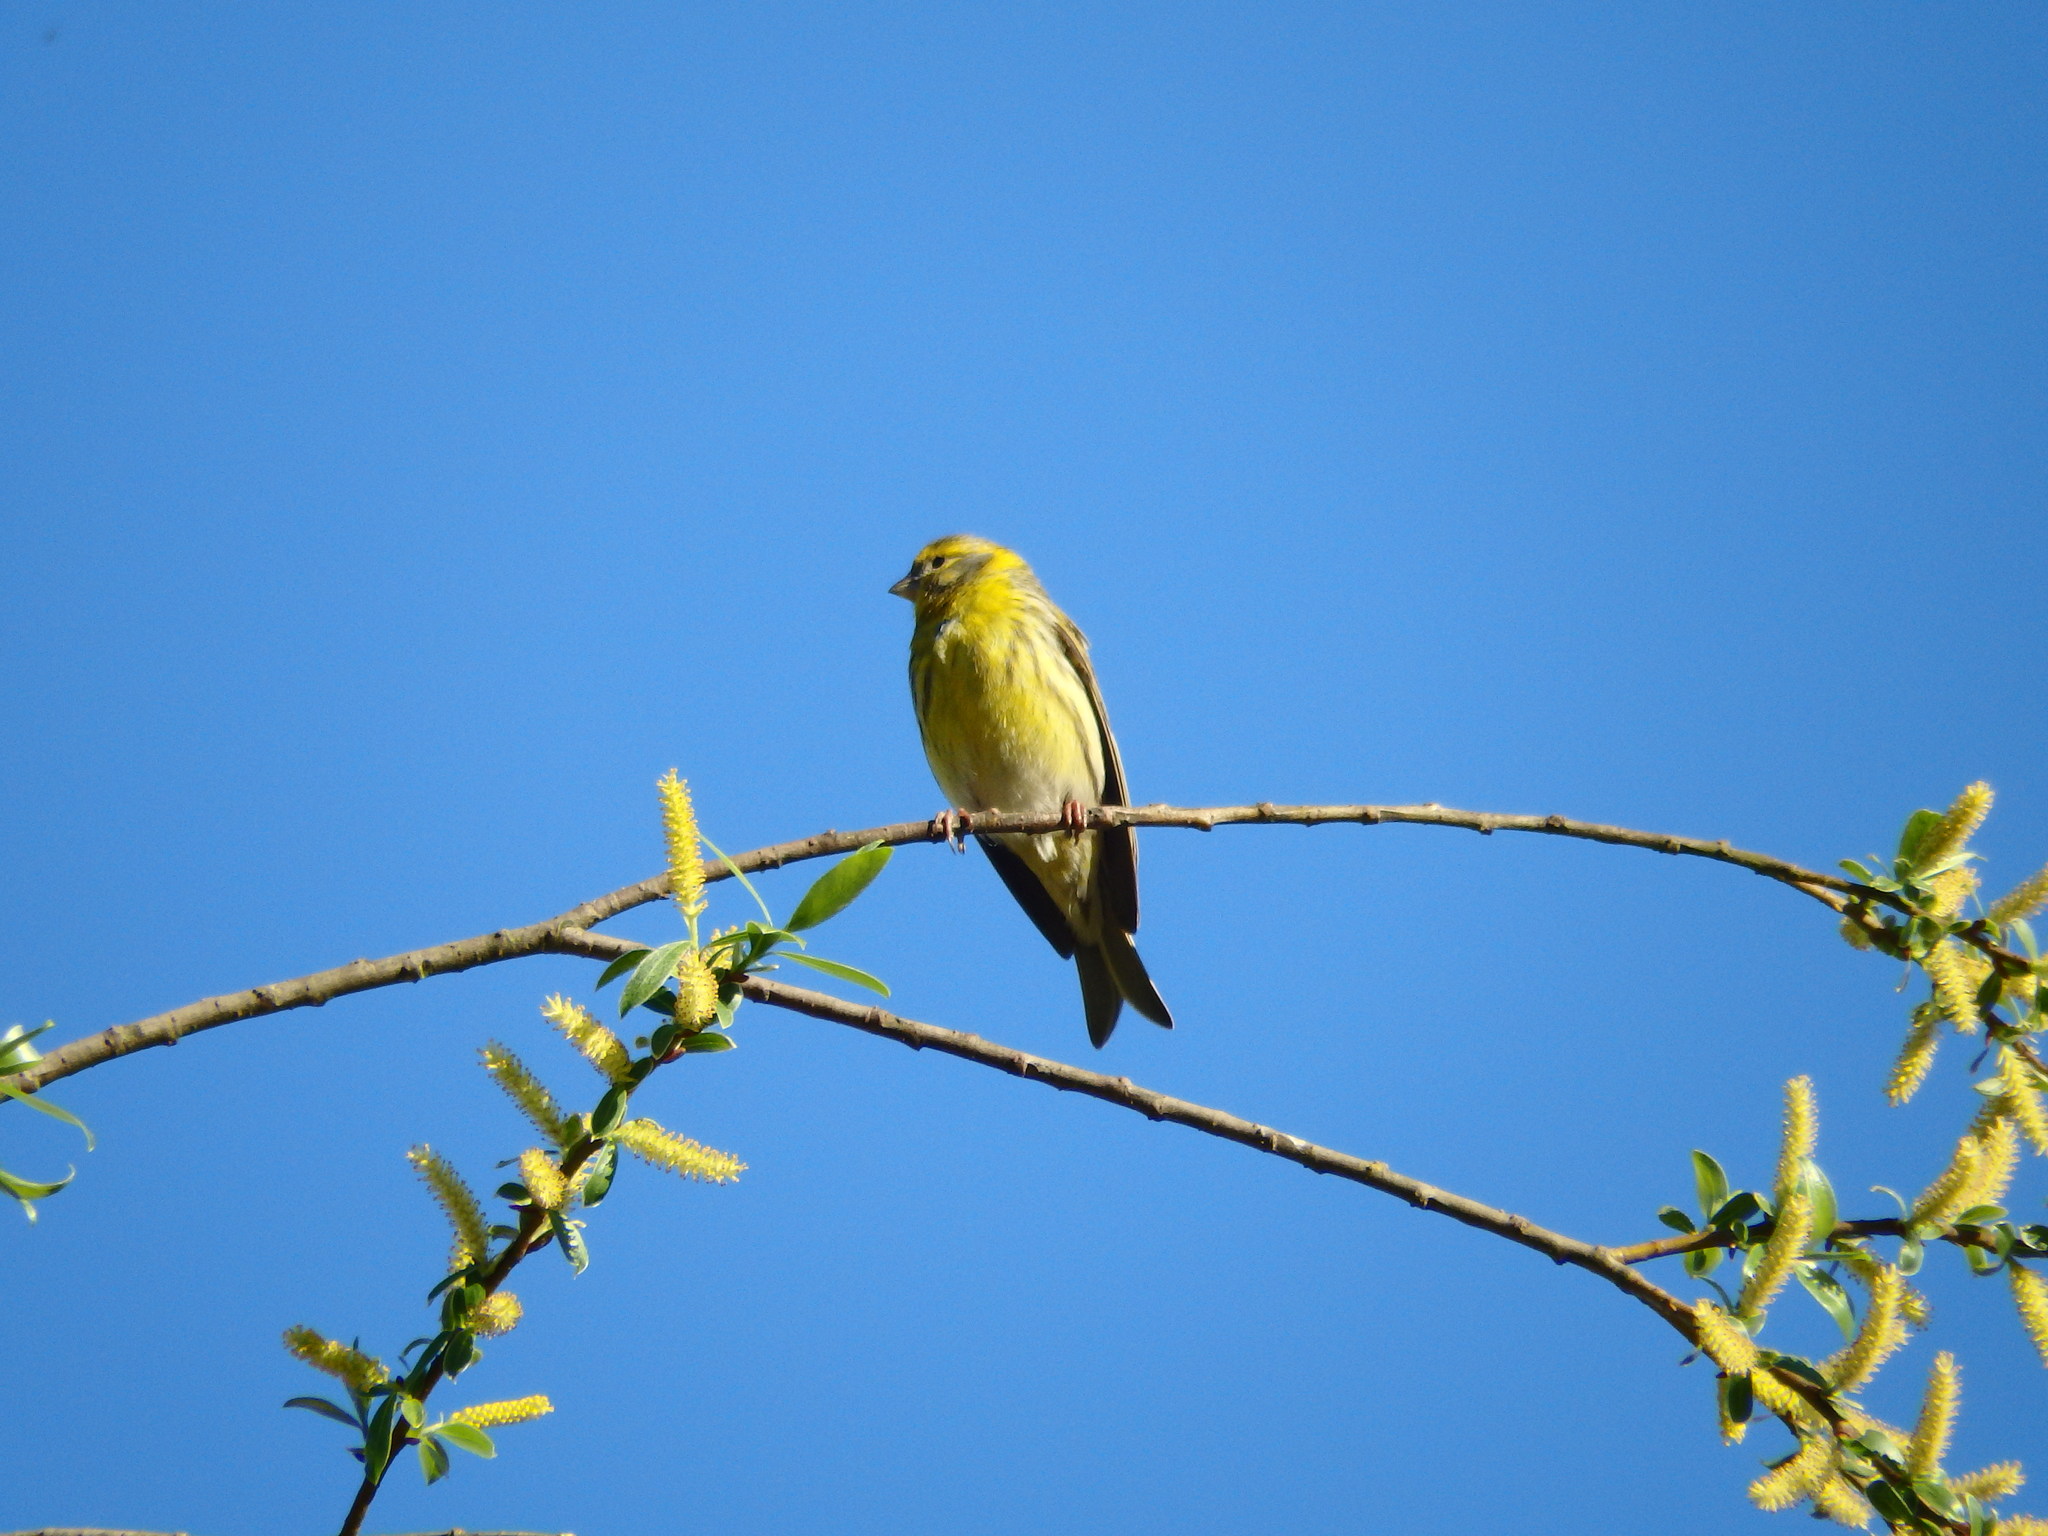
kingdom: Animalia
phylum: Chordata
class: Aves
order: Passeriformes
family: Fringillidae
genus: Serinus
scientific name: Serinus serinus
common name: European serin
